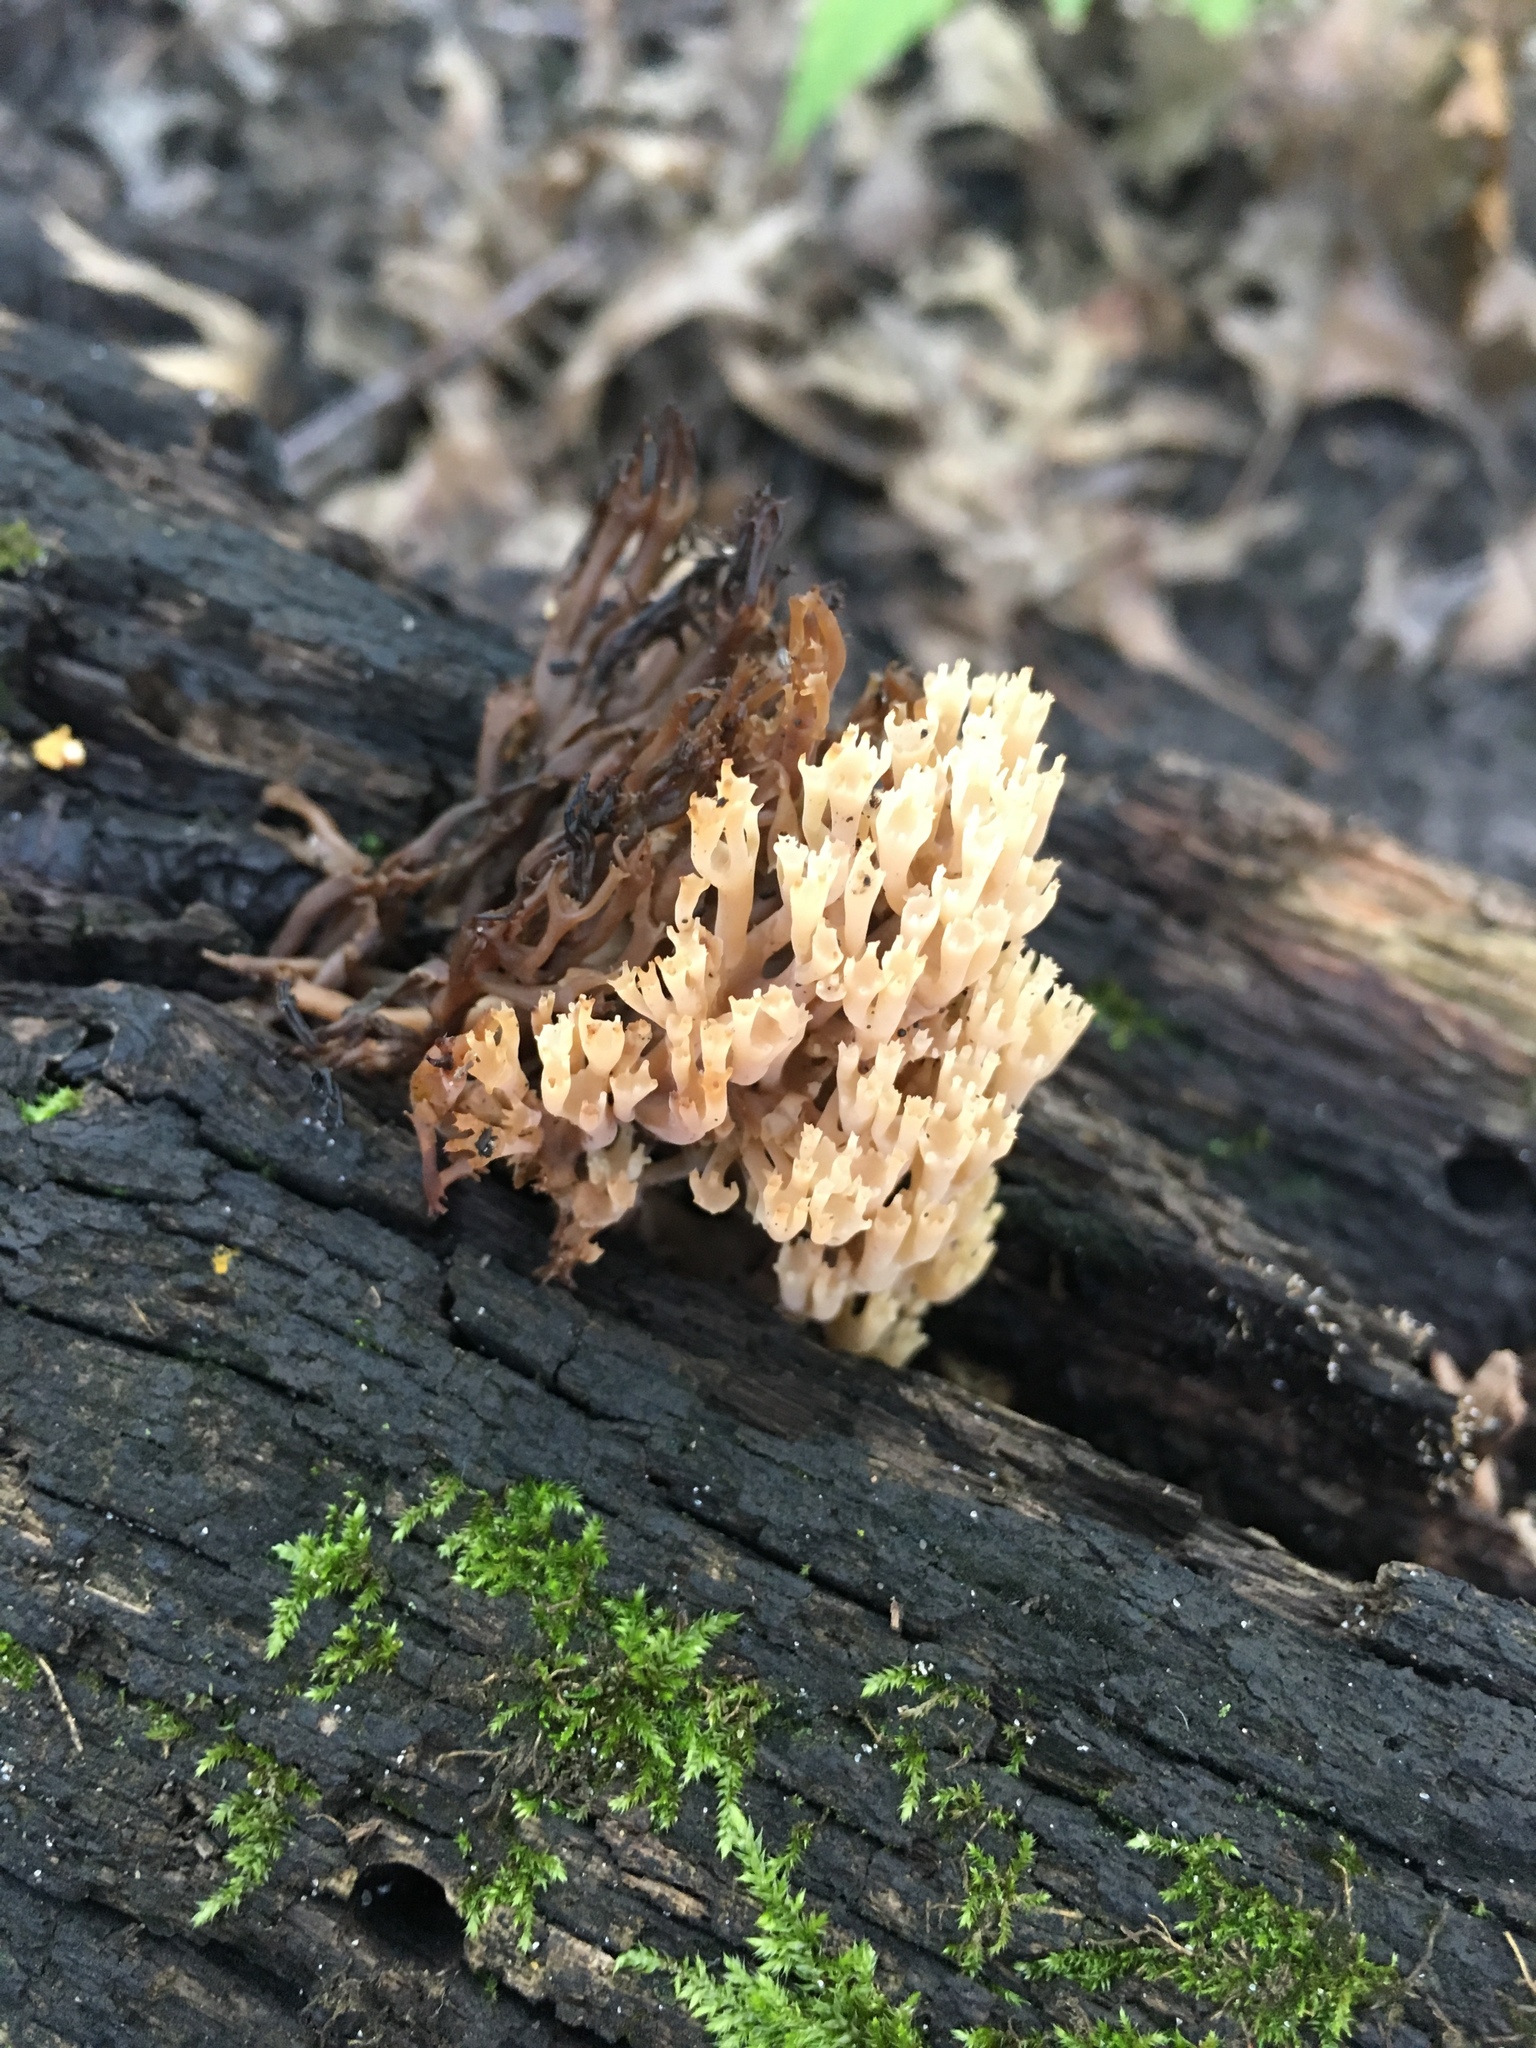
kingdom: Fungi
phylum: Basidiomycota
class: Agaricomycetes
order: Russulales
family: Auriscalpiaceae
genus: Artomyces
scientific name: Artomyces pyxidatus
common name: Crown-tipped coral fungus
